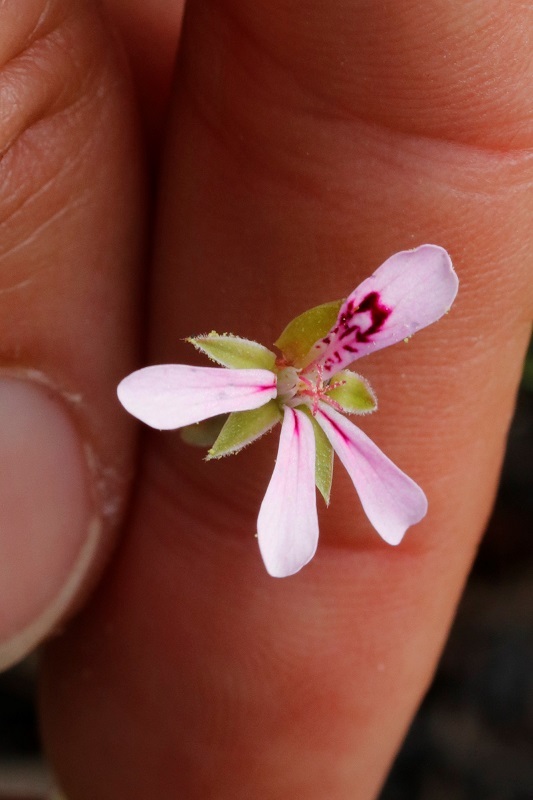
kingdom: Plantae
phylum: Tracheophyta
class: Magnoliopsida
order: Geraniales
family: Geraniaceae
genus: Pelargonium
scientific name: Pelargonium patulum
